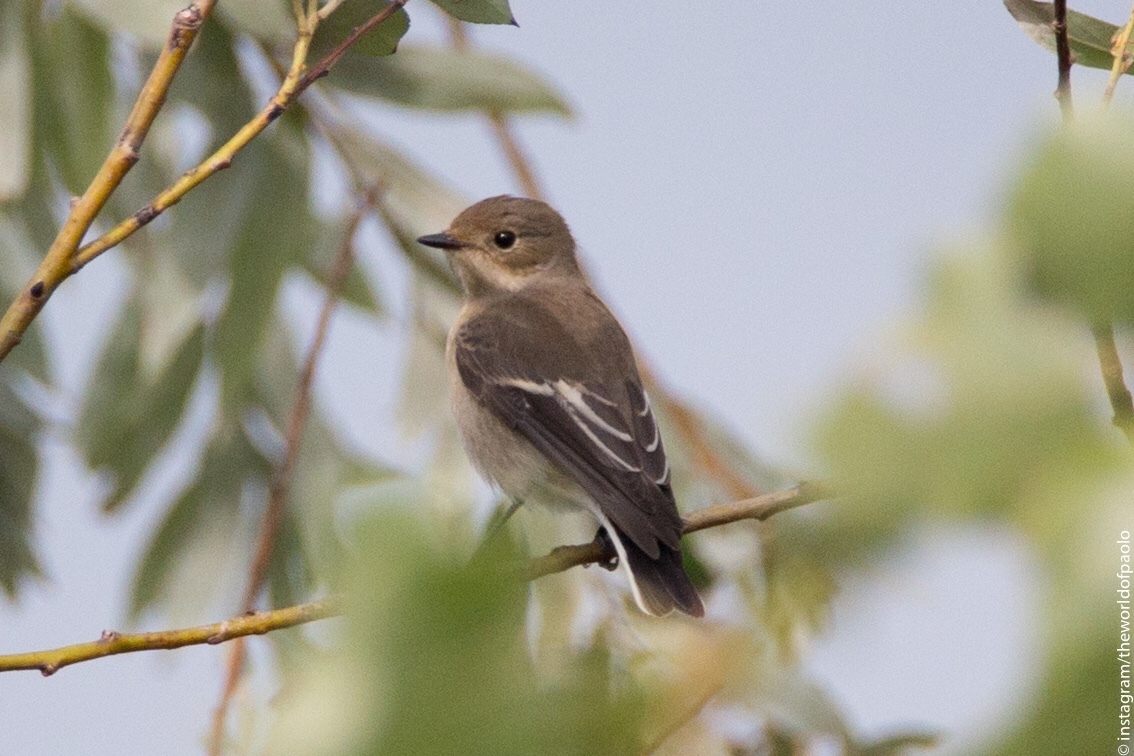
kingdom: Animalia
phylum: Chordata
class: Aves
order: Passeriformes
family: Muscicapidae
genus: Ficedula
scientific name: Ficedula hypoleuca
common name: European pied flycatcher
